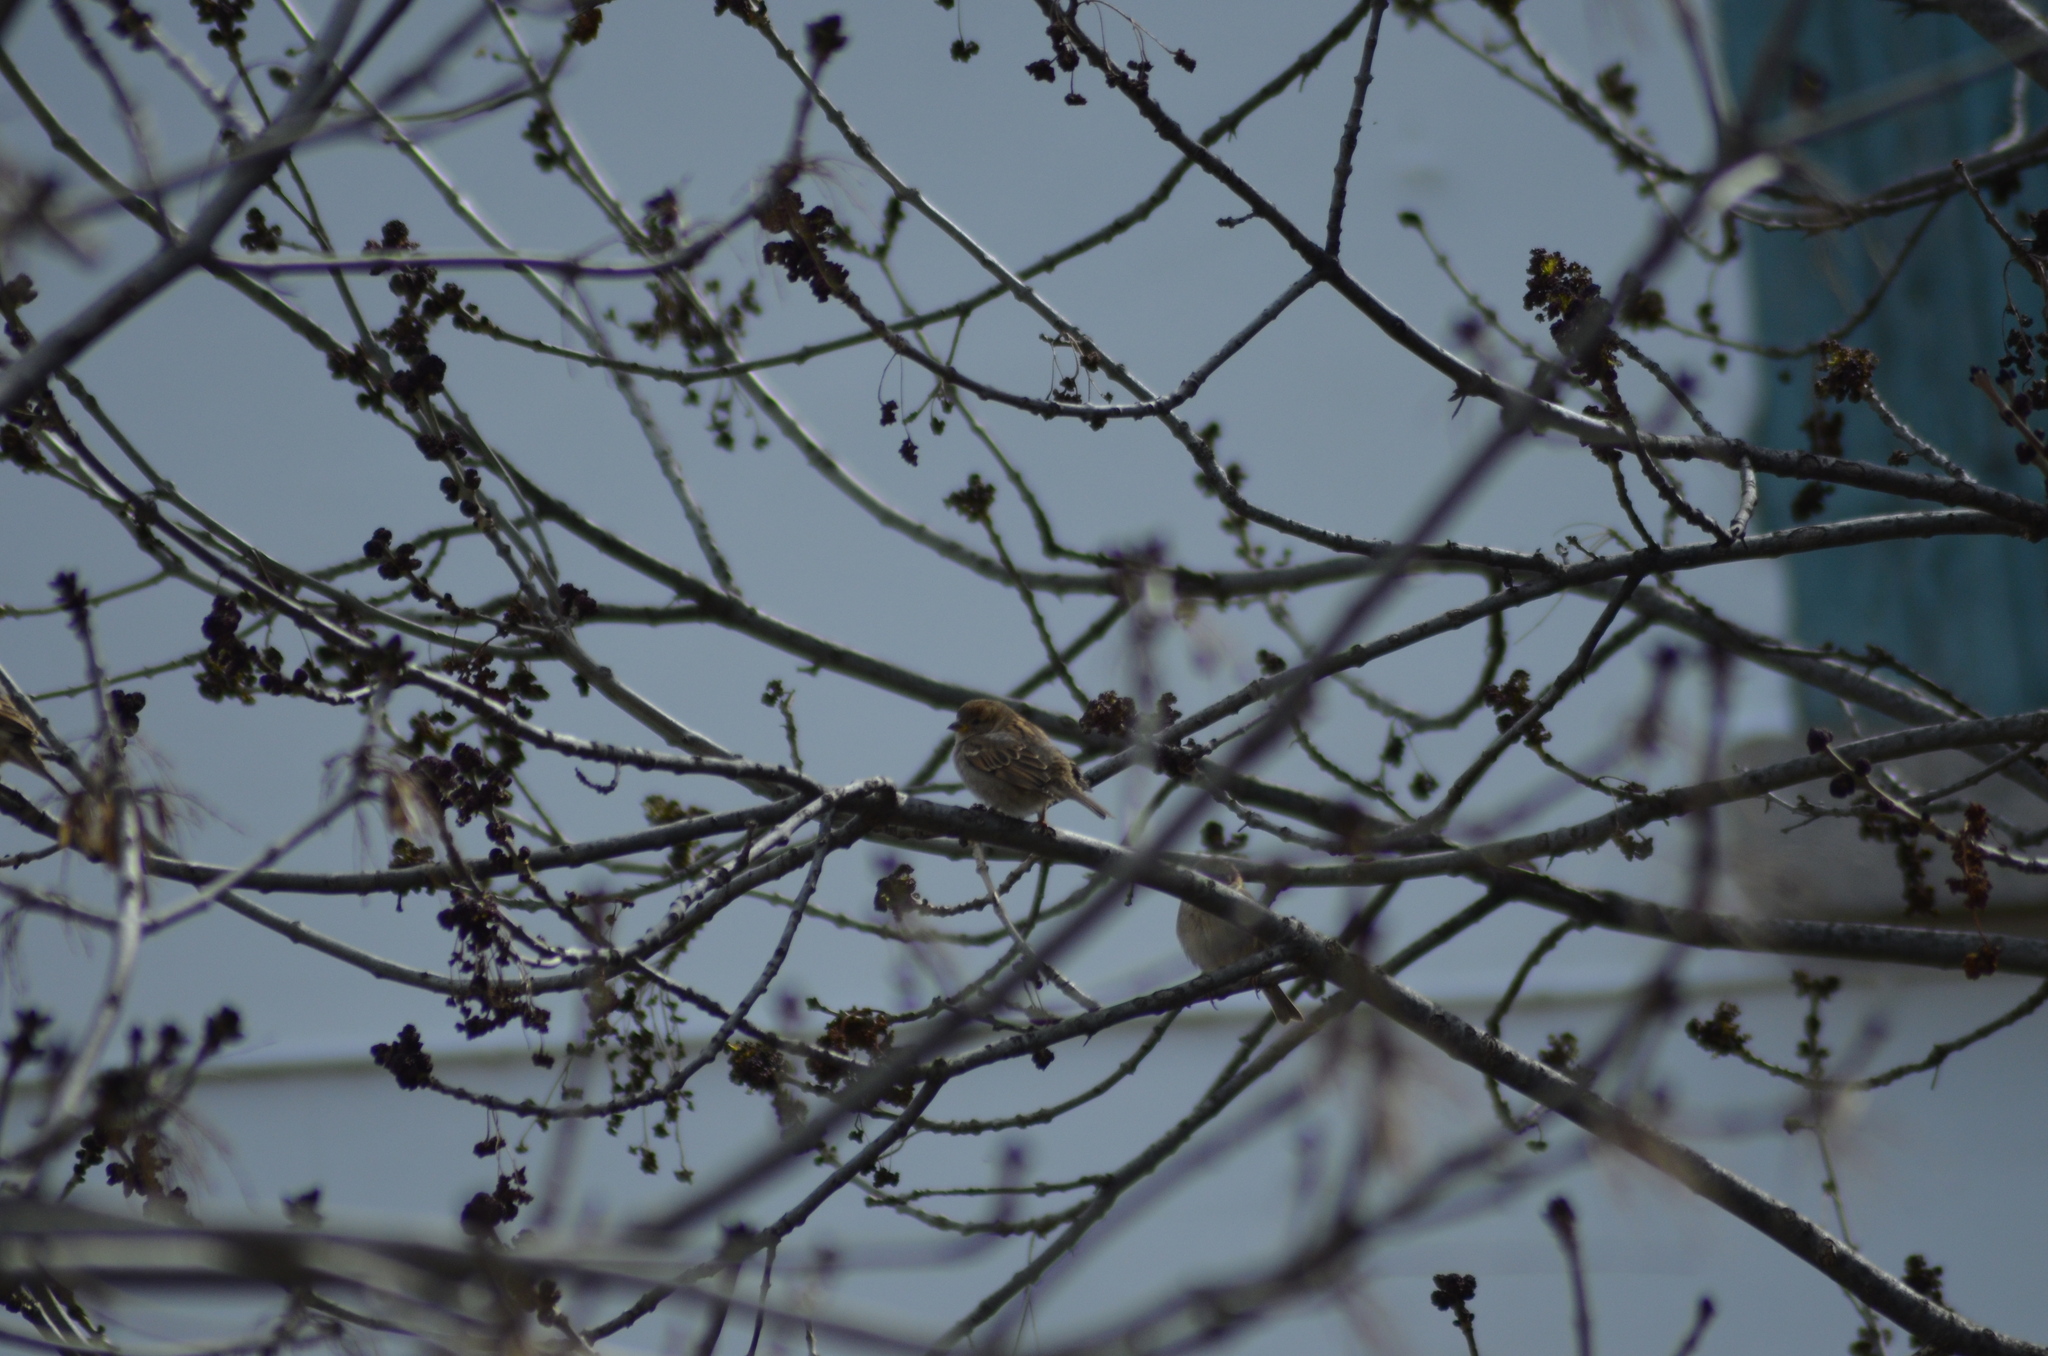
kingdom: Animalia
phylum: Chordata
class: Aves
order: Passeriformes
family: Passeridae
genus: Passer
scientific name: Passer domesticus
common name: House sparrow
